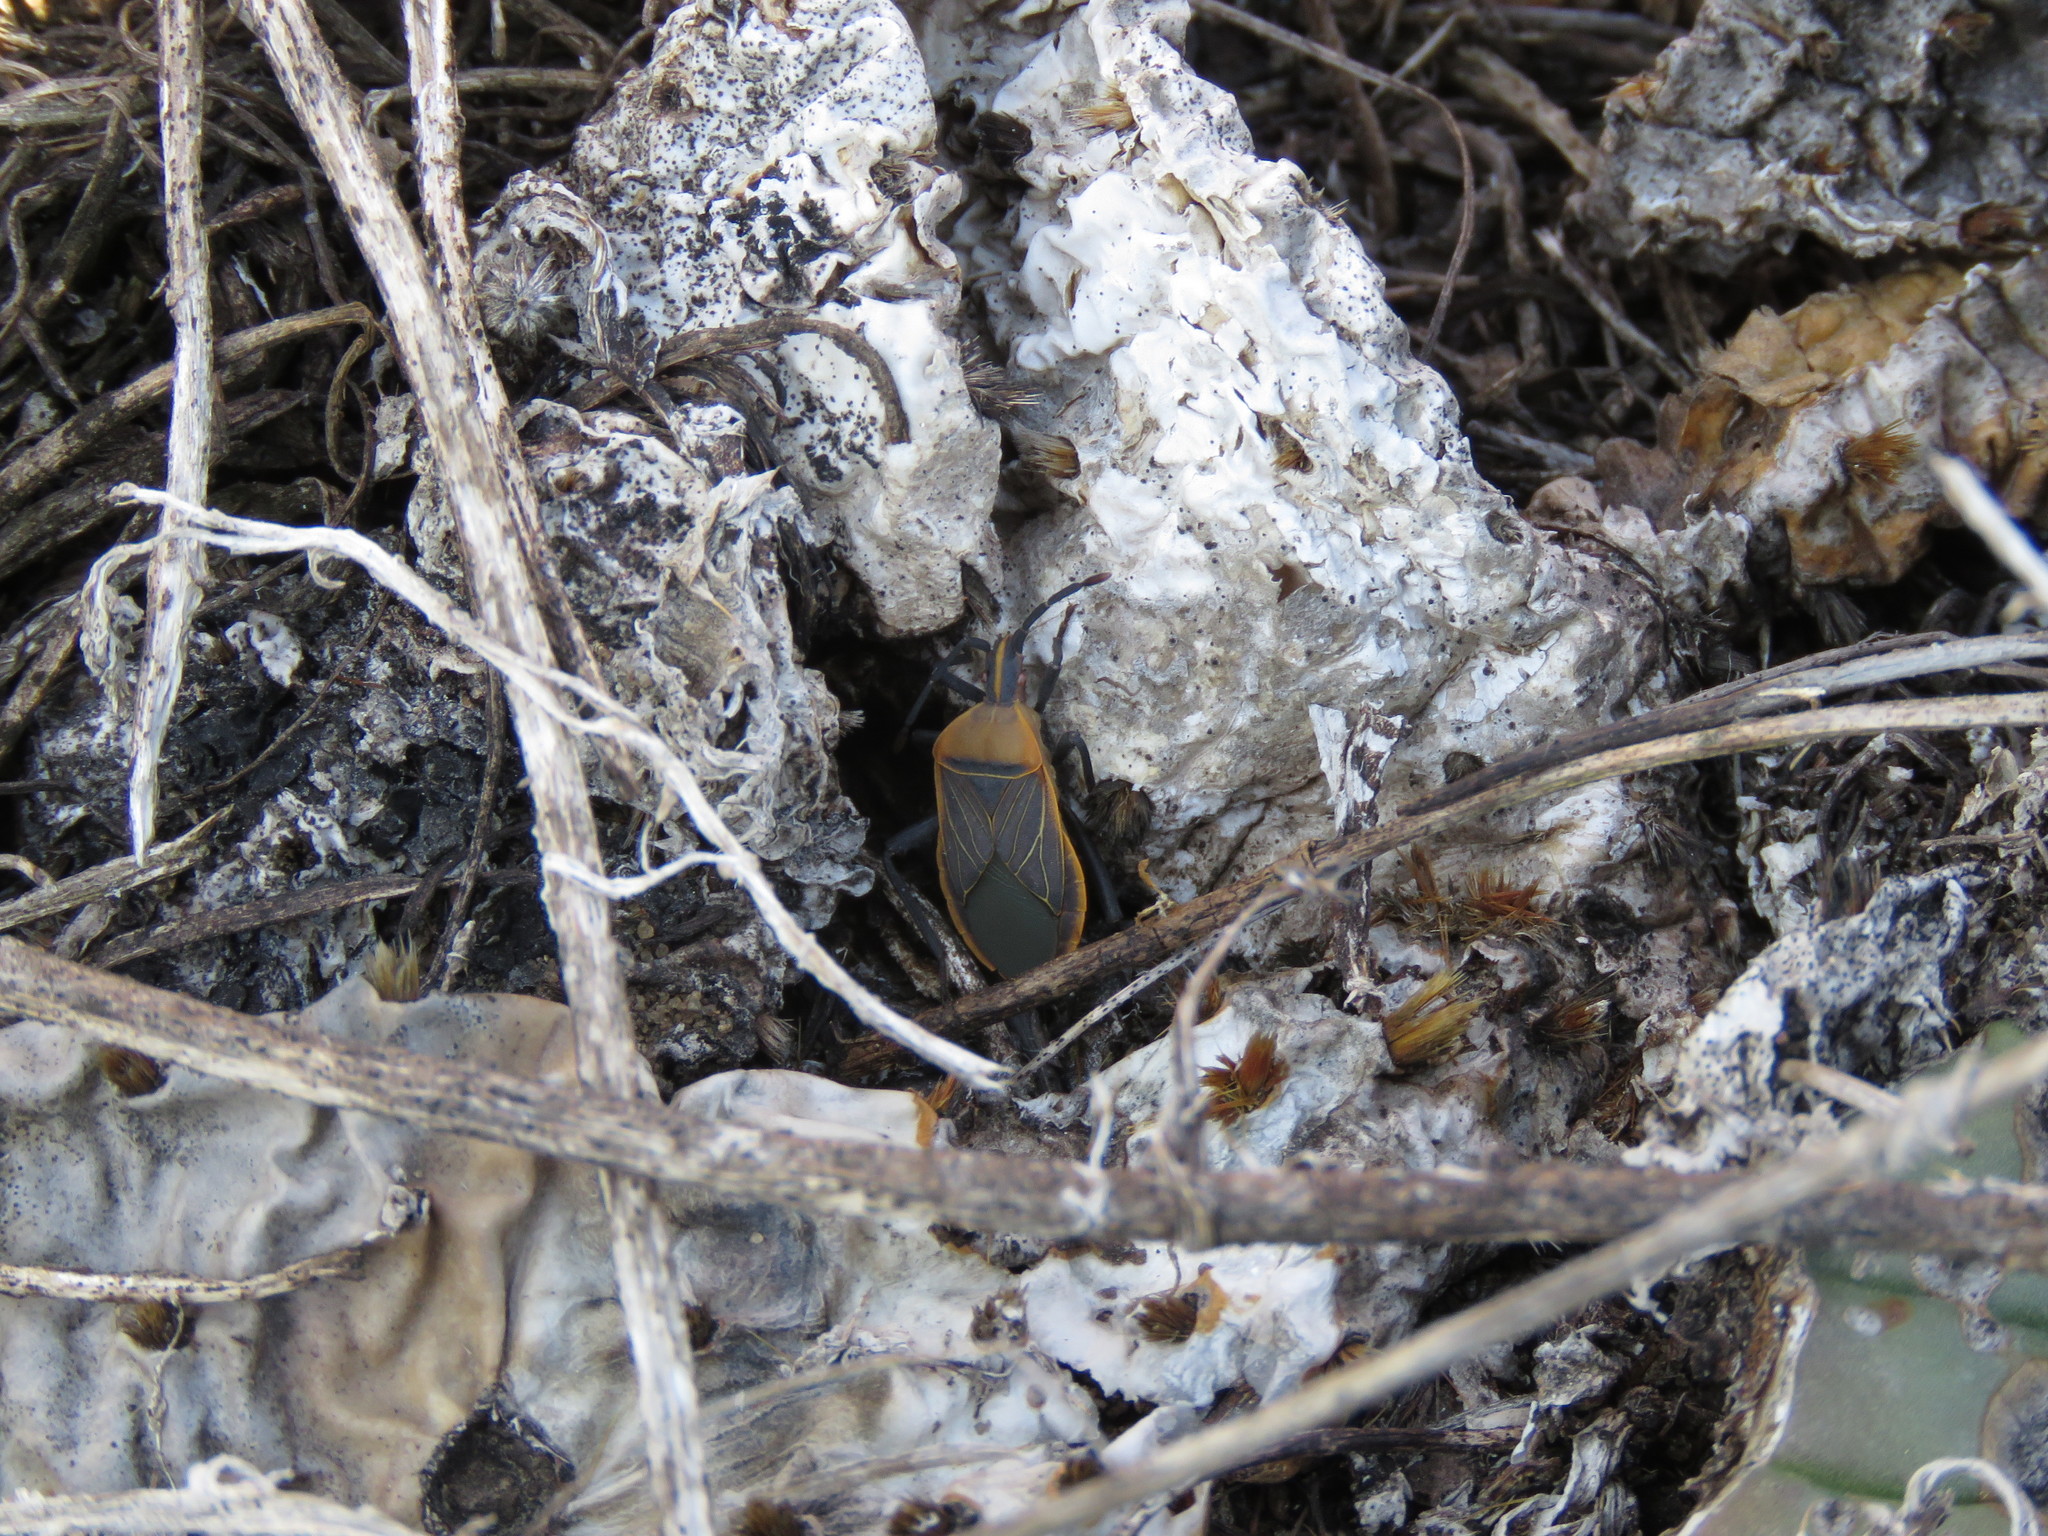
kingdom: Animalia
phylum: Arthropoda
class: Insecta
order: Hemiptera
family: Coreidae
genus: Chelinidea
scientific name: Chelinidea vittiger
